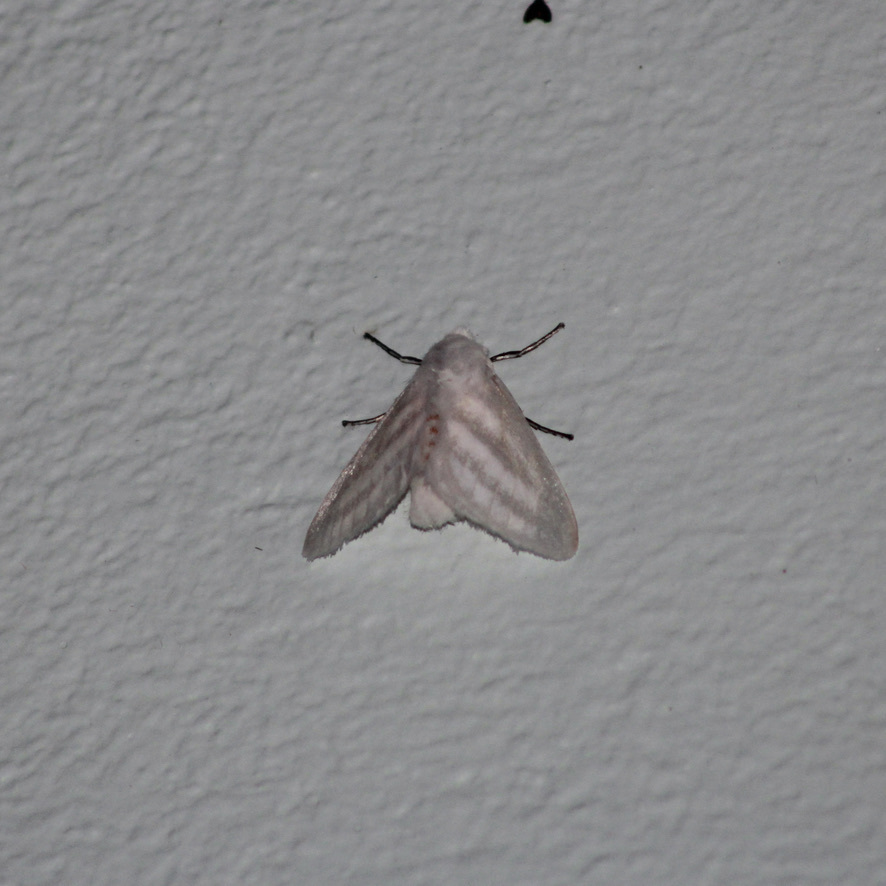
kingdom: Animalia
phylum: Arthropoda
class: Insecta
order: Lepidoptera
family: Megalopygidae
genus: Macara
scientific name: Macara nigripes
